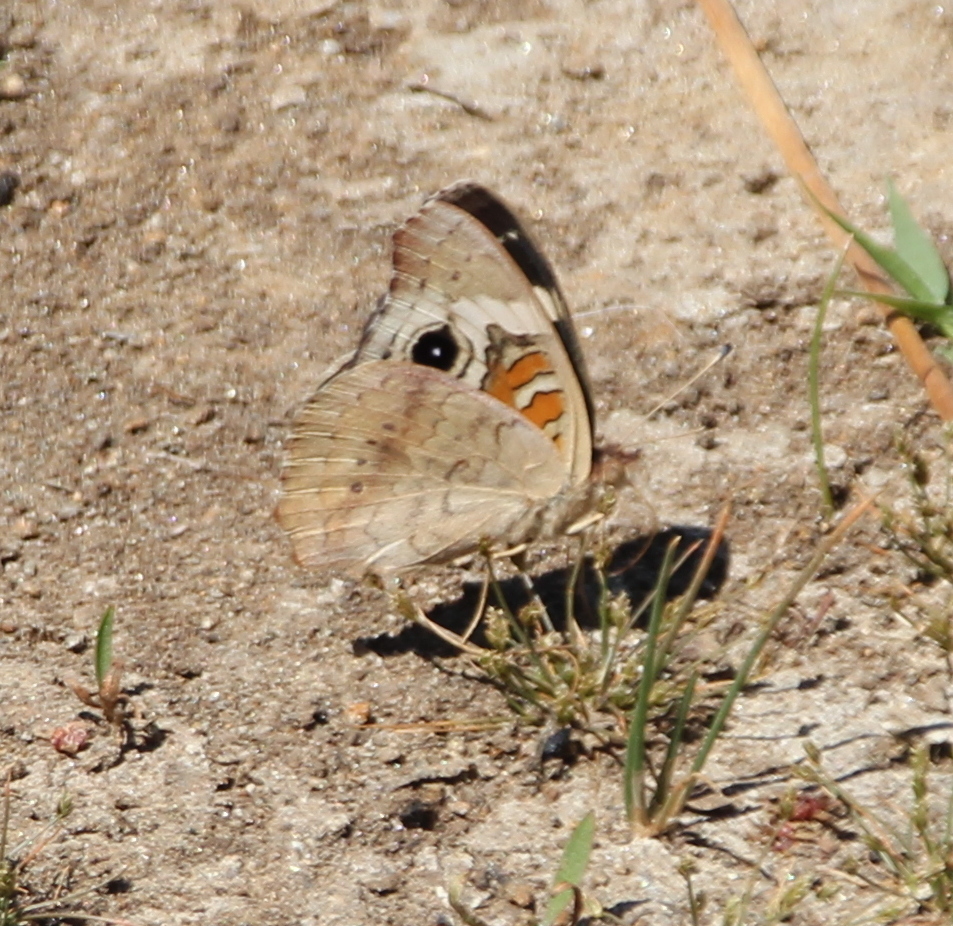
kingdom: Animalia
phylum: Arthropoda
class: Insecta
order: Lepidoptera
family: Nymphalidae
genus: Junonia
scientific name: Junonia grisea
